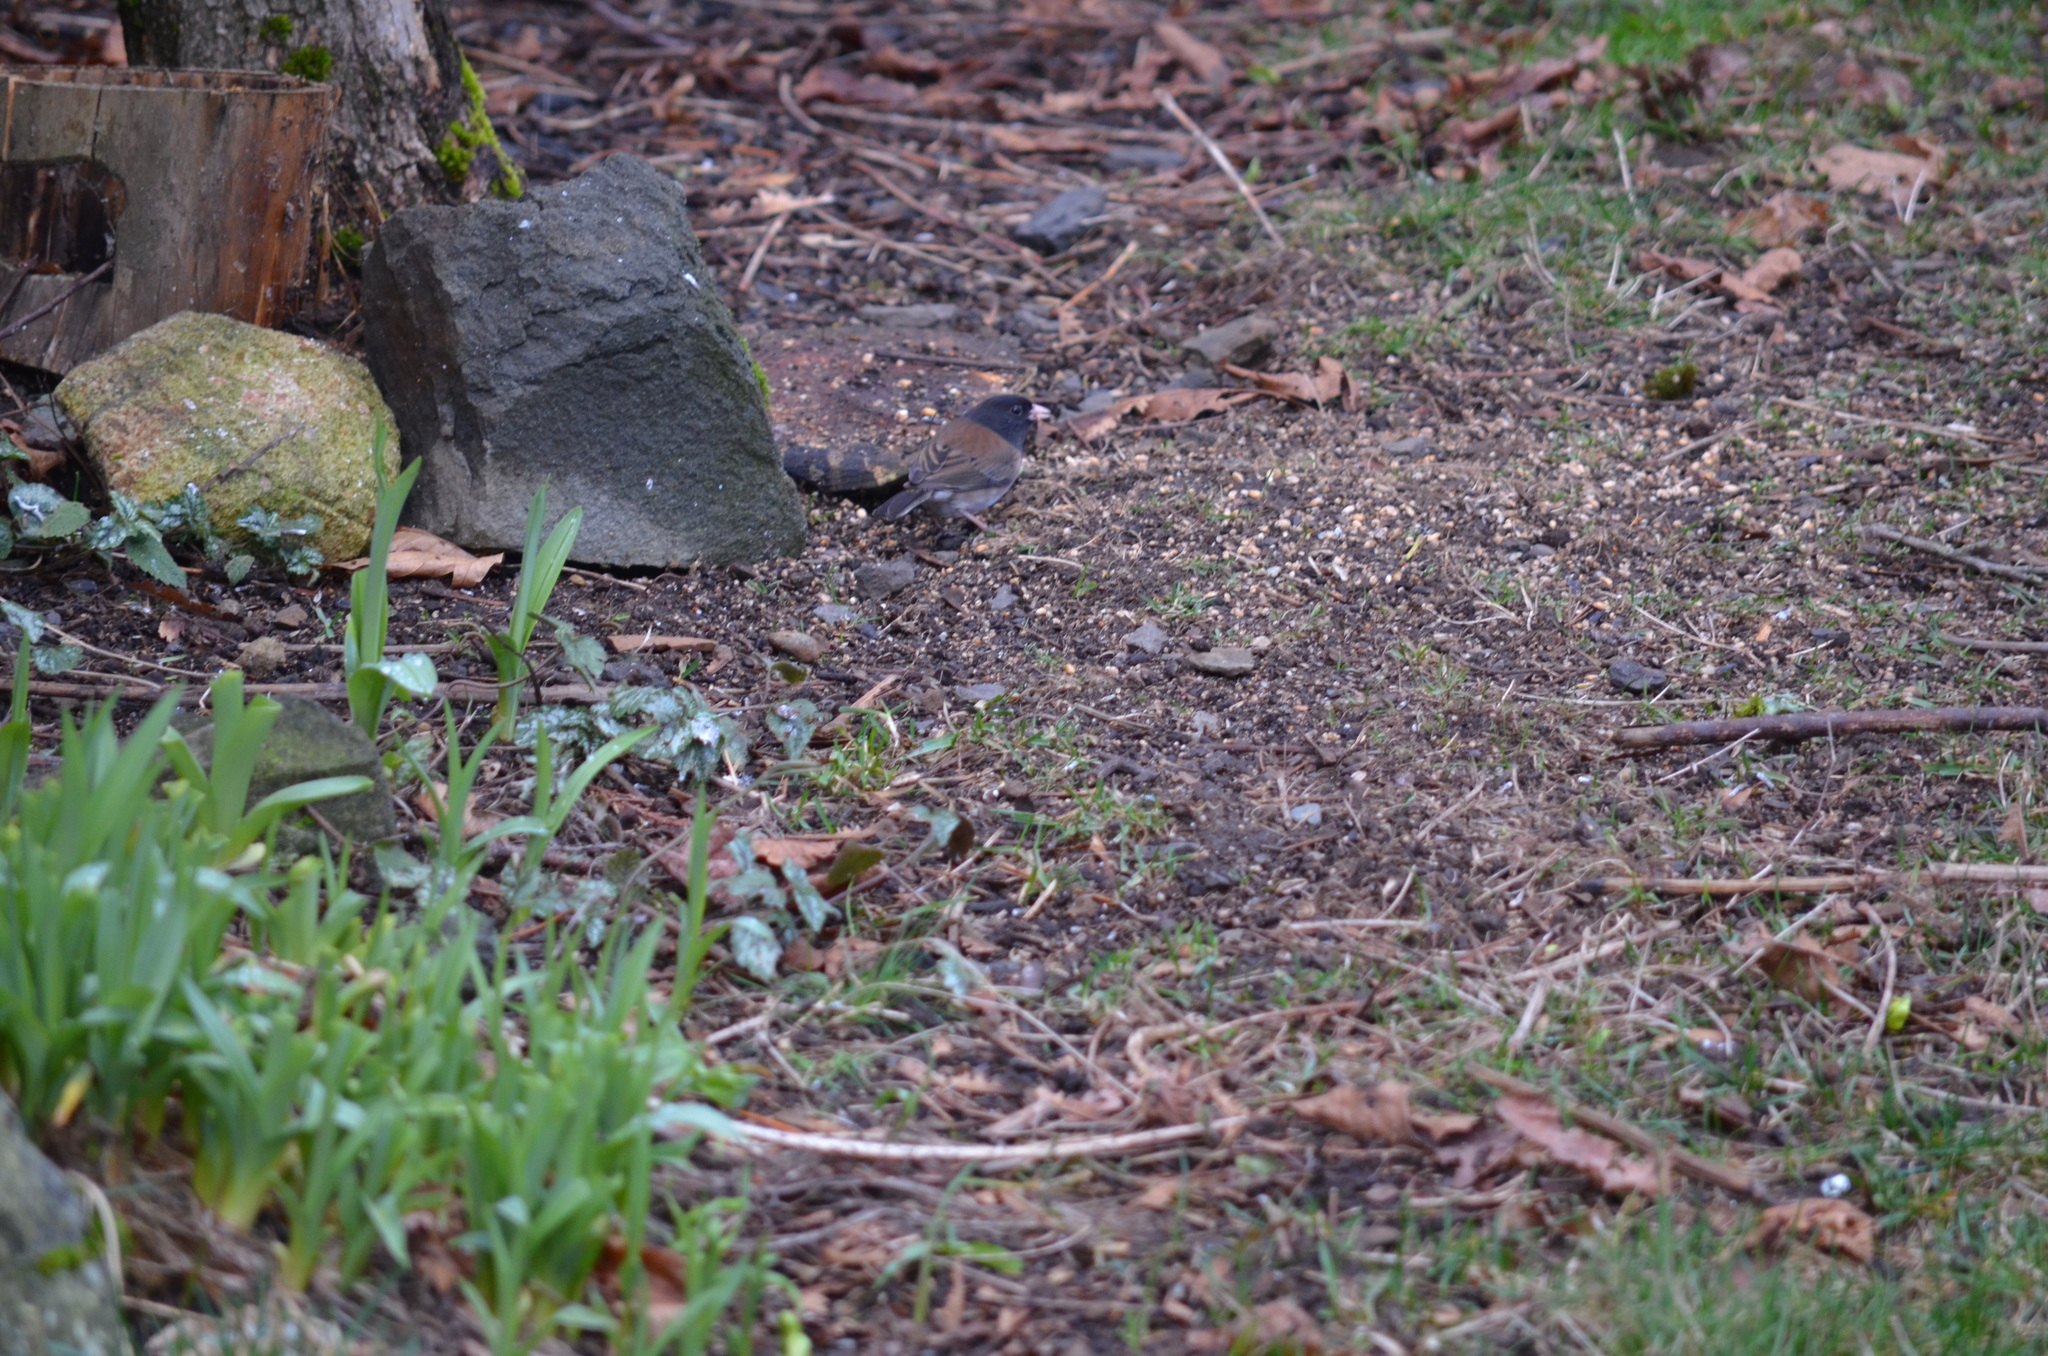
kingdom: Animalia
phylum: Chordata
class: Aves
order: Passeriformes
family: Passerellidae
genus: Junco
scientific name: Junco hyemalis
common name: Dark-eyed junco
